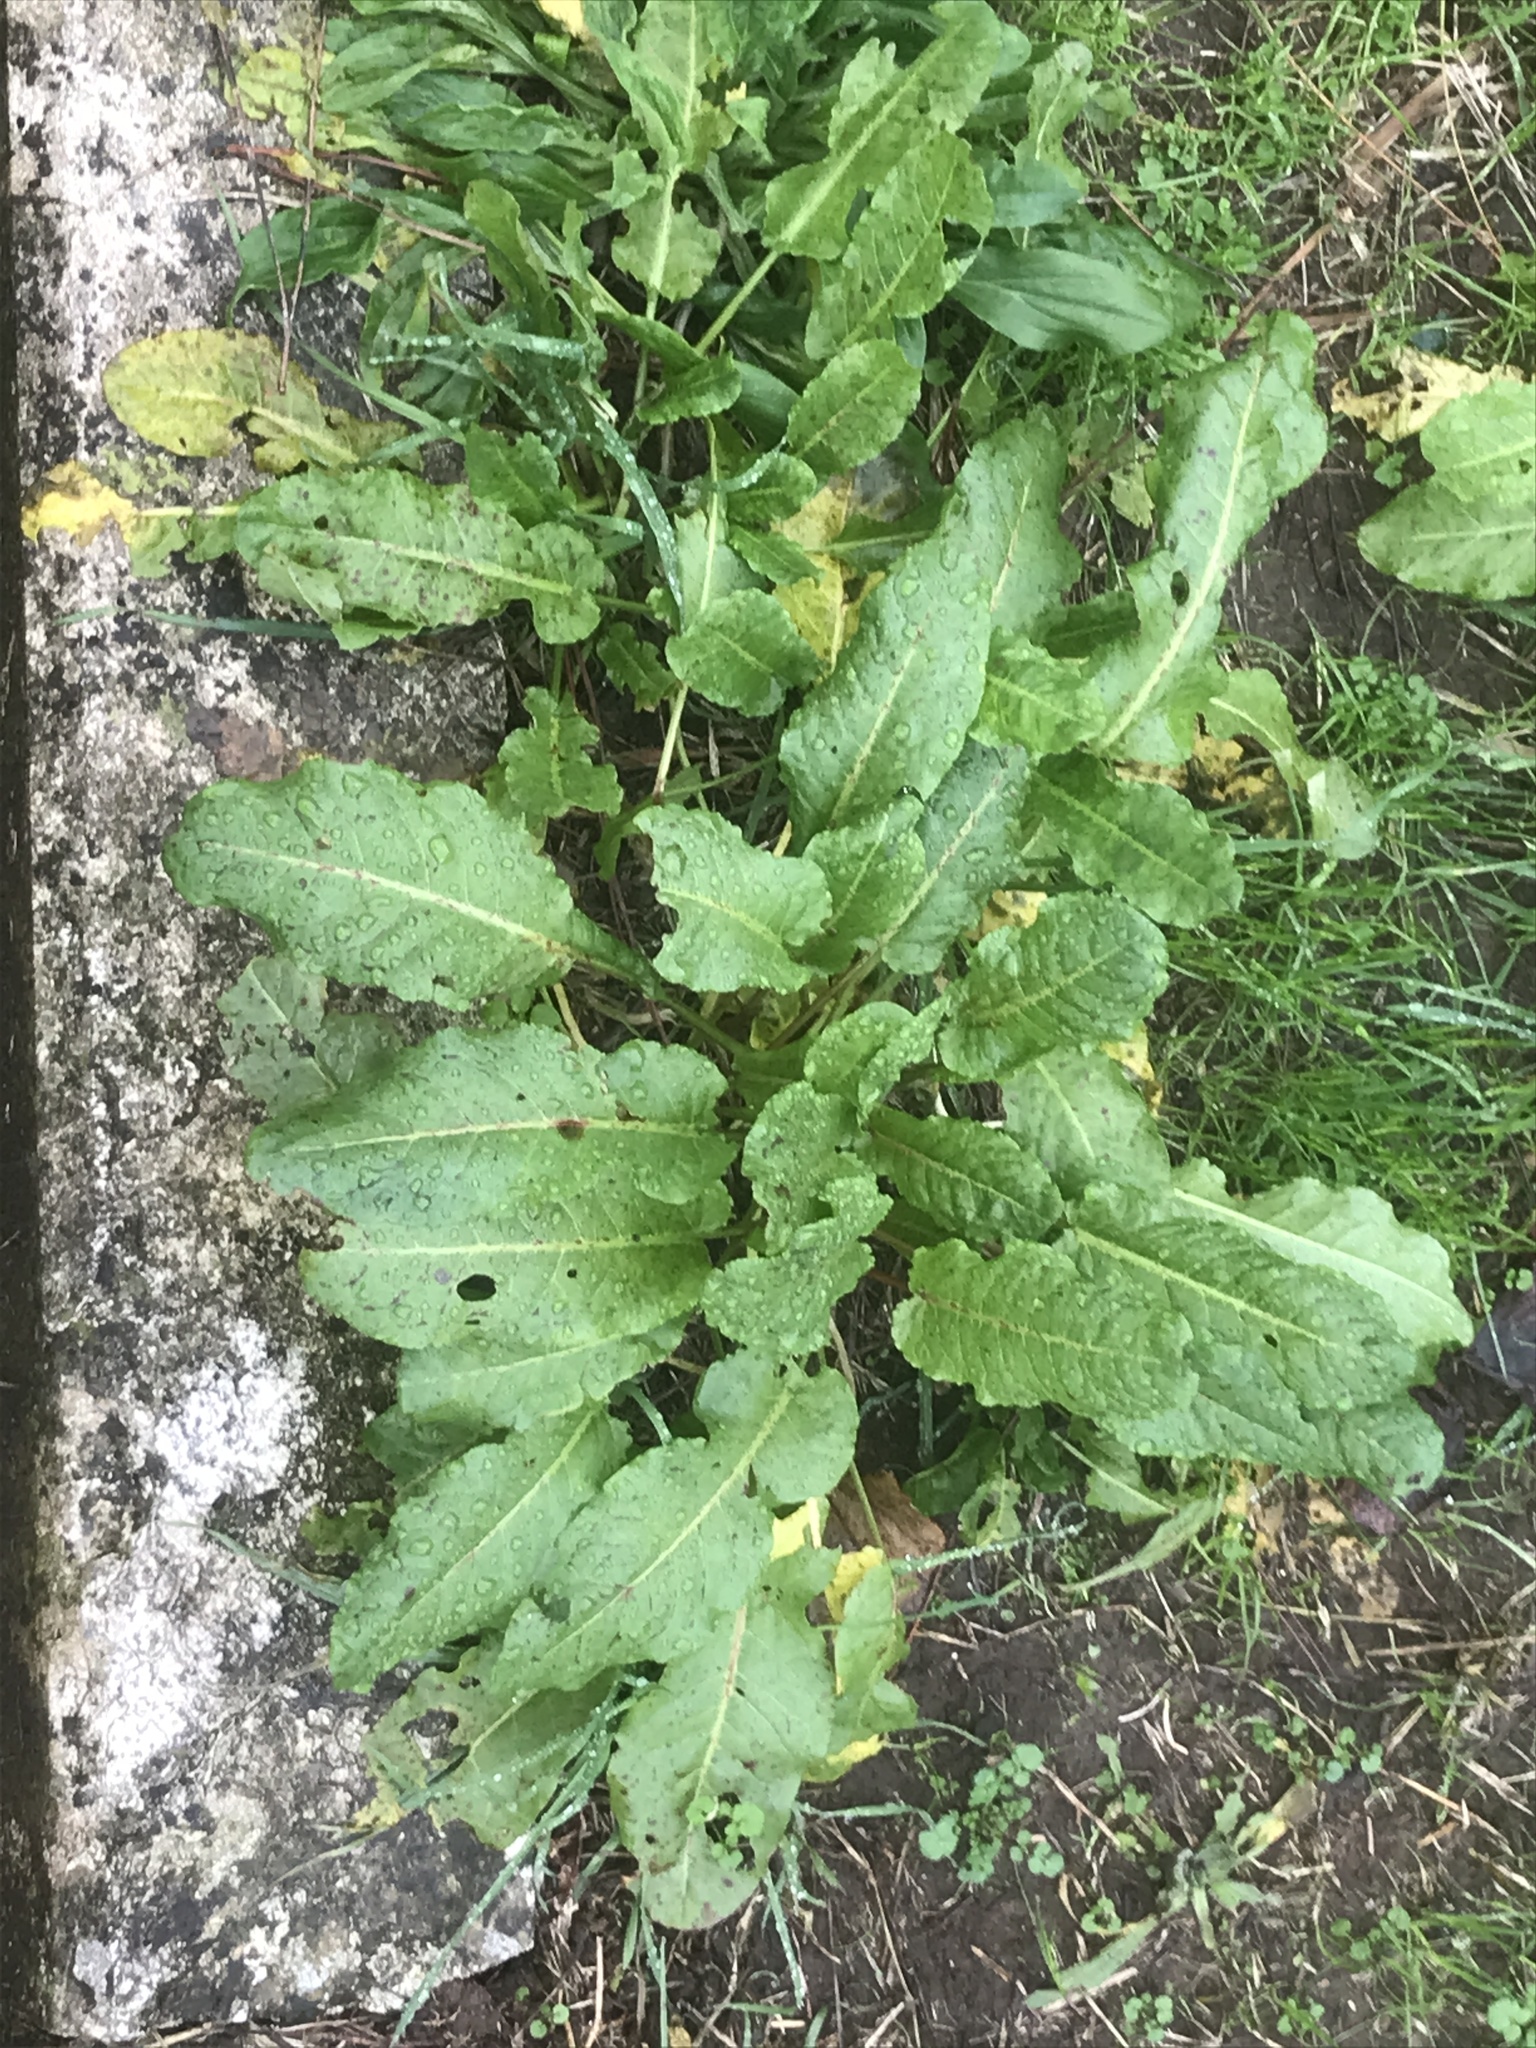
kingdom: Plantae
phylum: Tracheophyta
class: Magnoliopsida
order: Caryophyllales
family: Polygonaceae
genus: Rumex
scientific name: Rumex obtusifolius
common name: Bitter dock
